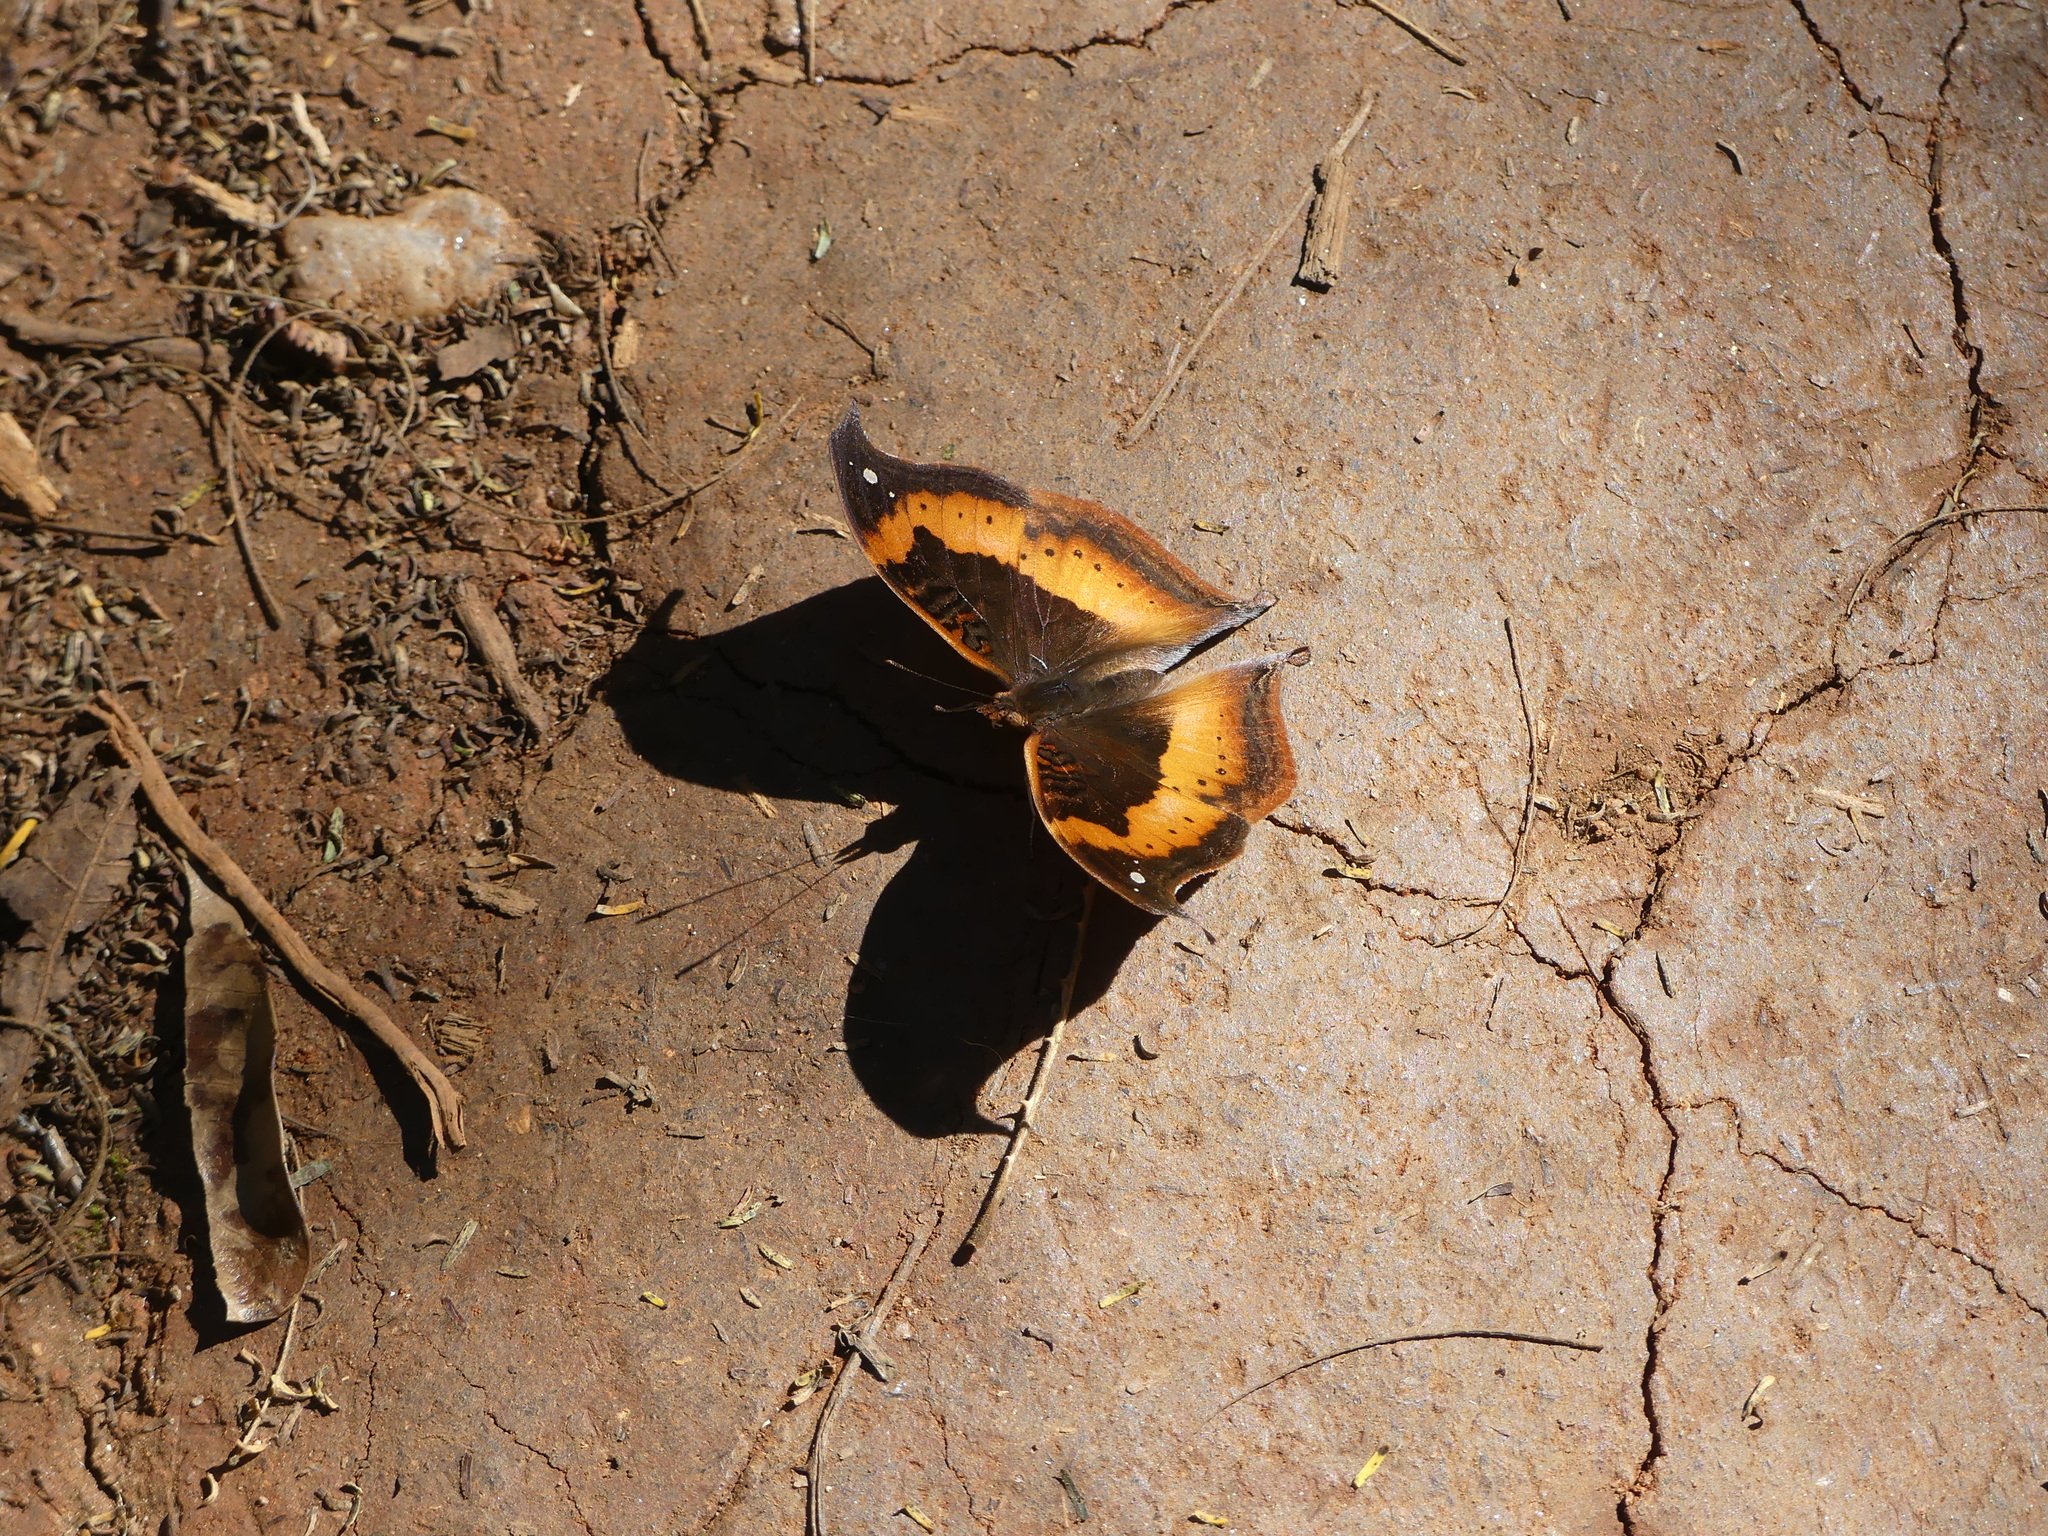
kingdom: Animalia
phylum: Arthropoda
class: Insecta
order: Lepidoptera
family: Nymphalidae
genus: Junonia
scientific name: Junonia tugela
